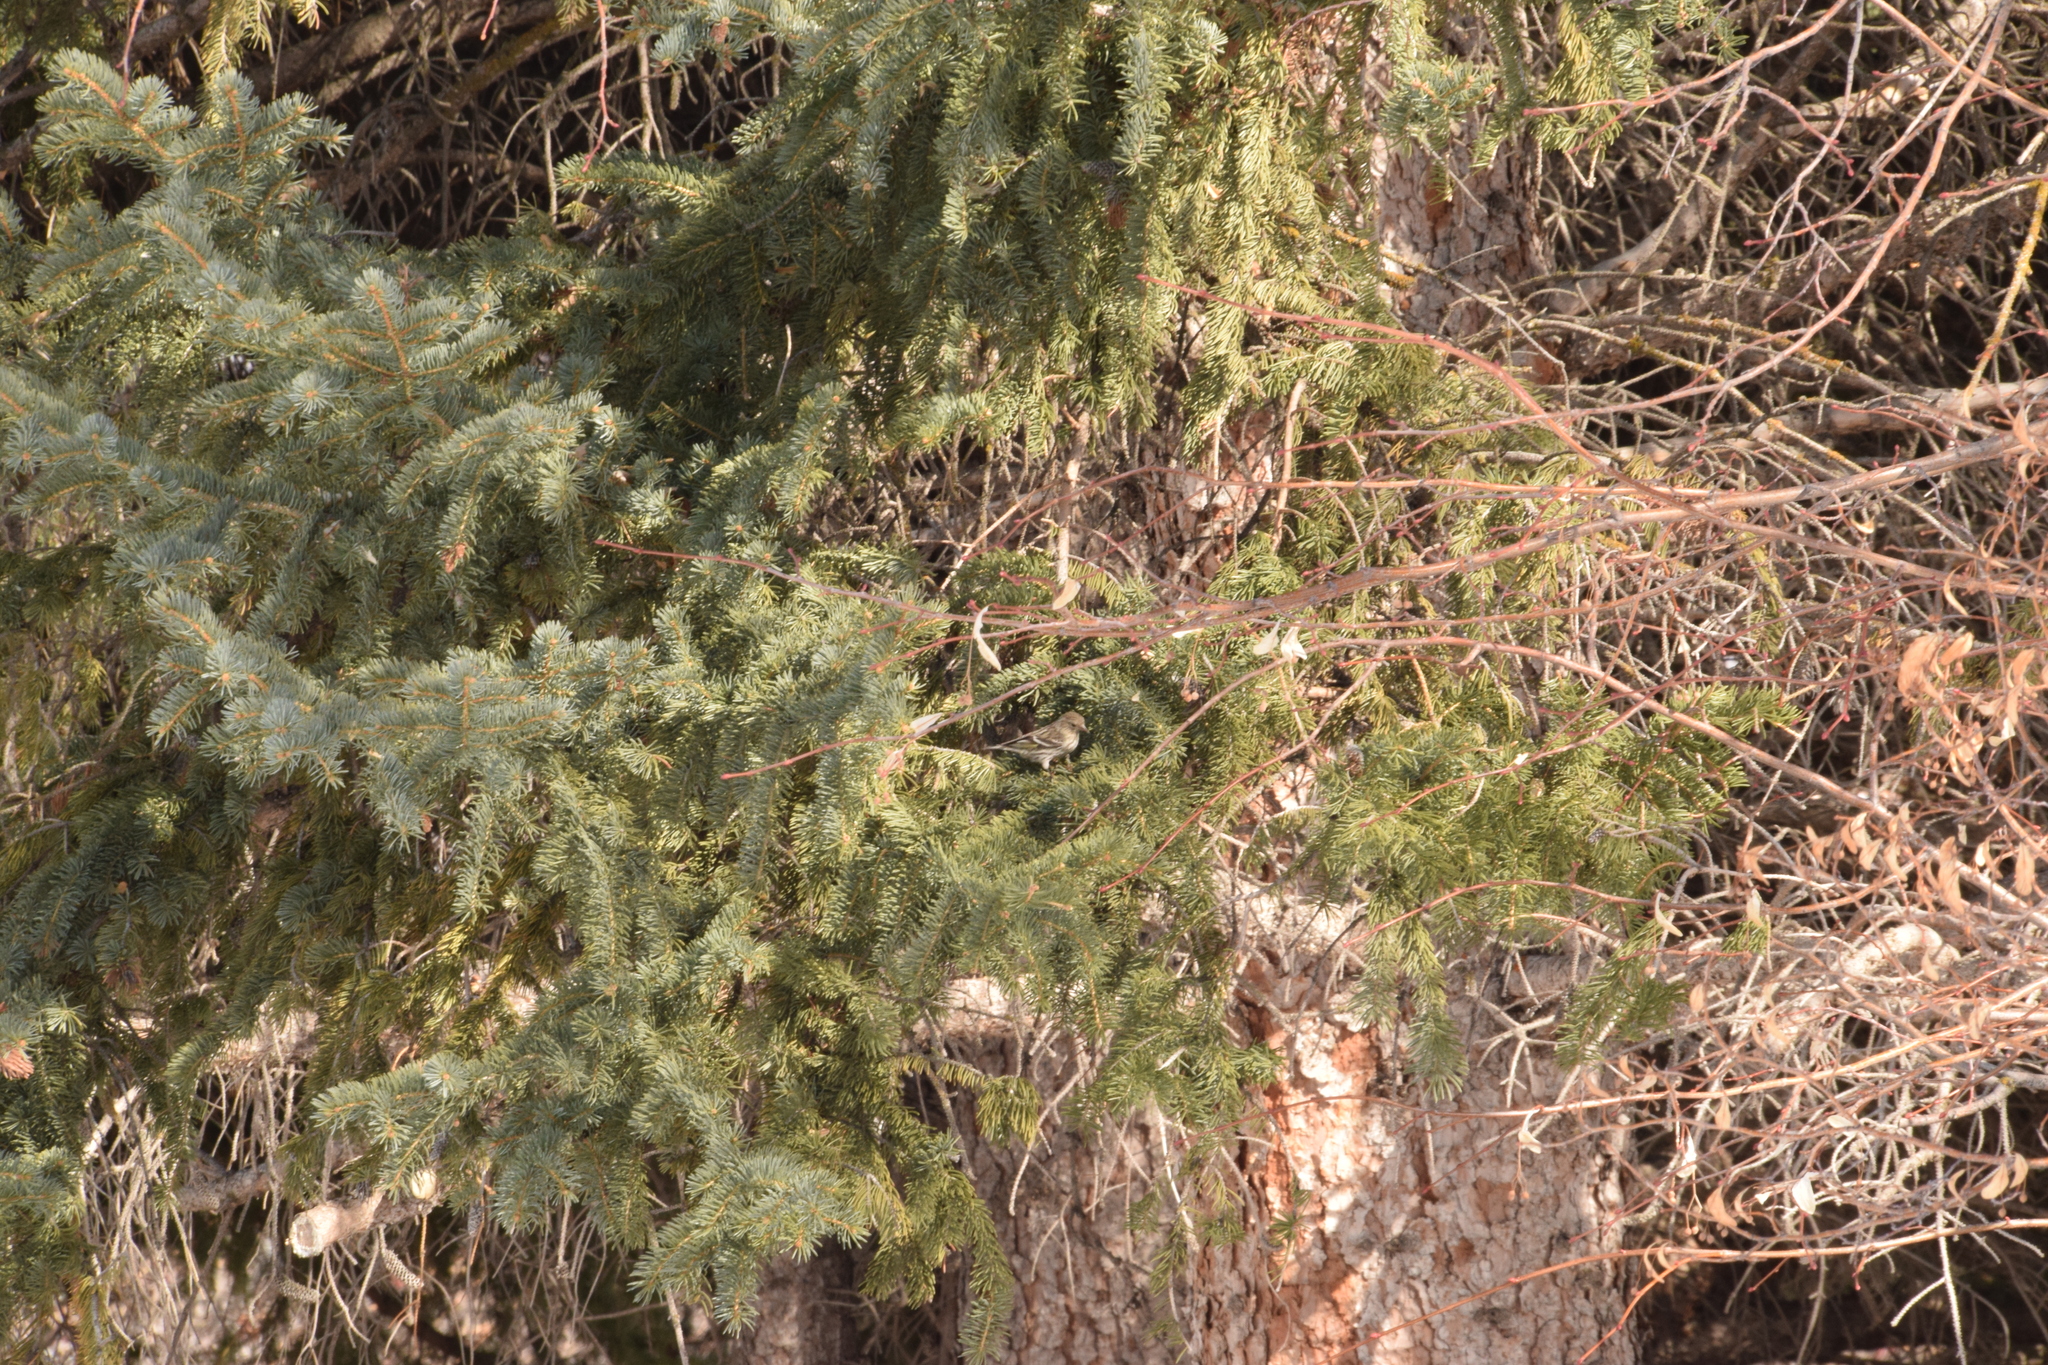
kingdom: Animalia
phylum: Chordata
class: Aves
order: Passeriformes
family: Fringillidae
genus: Spinus
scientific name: Spinus pinus
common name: Pine siskin
